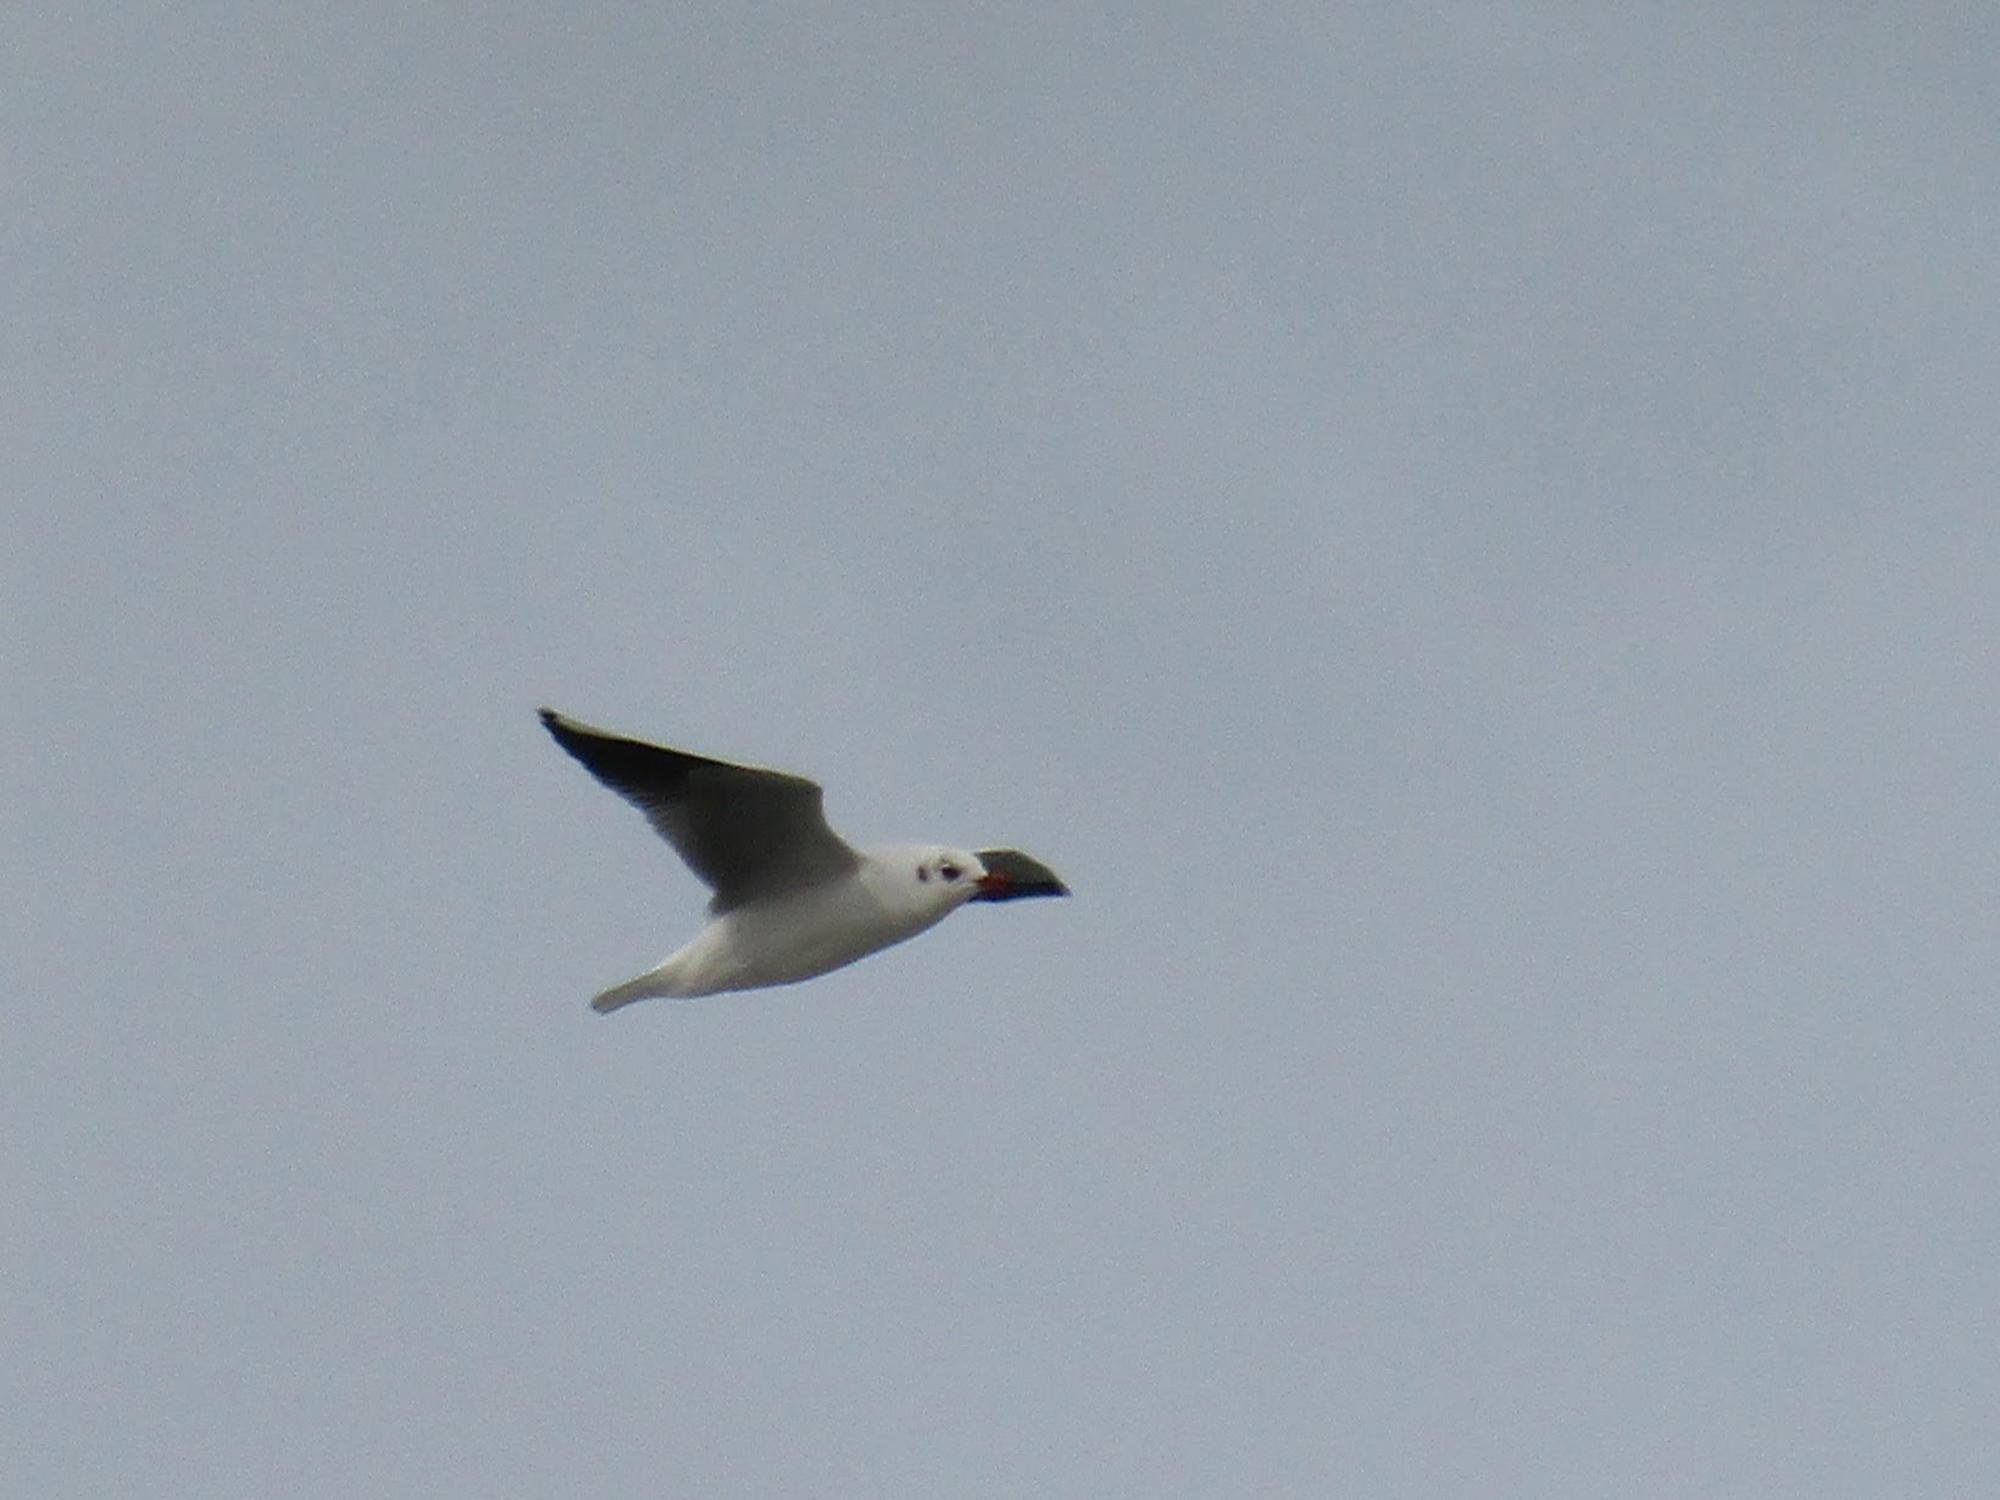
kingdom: Animalia
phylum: Chordata
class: Aves
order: Charadriiformes
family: Laridae
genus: Chroicocephalus
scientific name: Chroicocephalus maculipennis
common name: Brown-hooded gull
